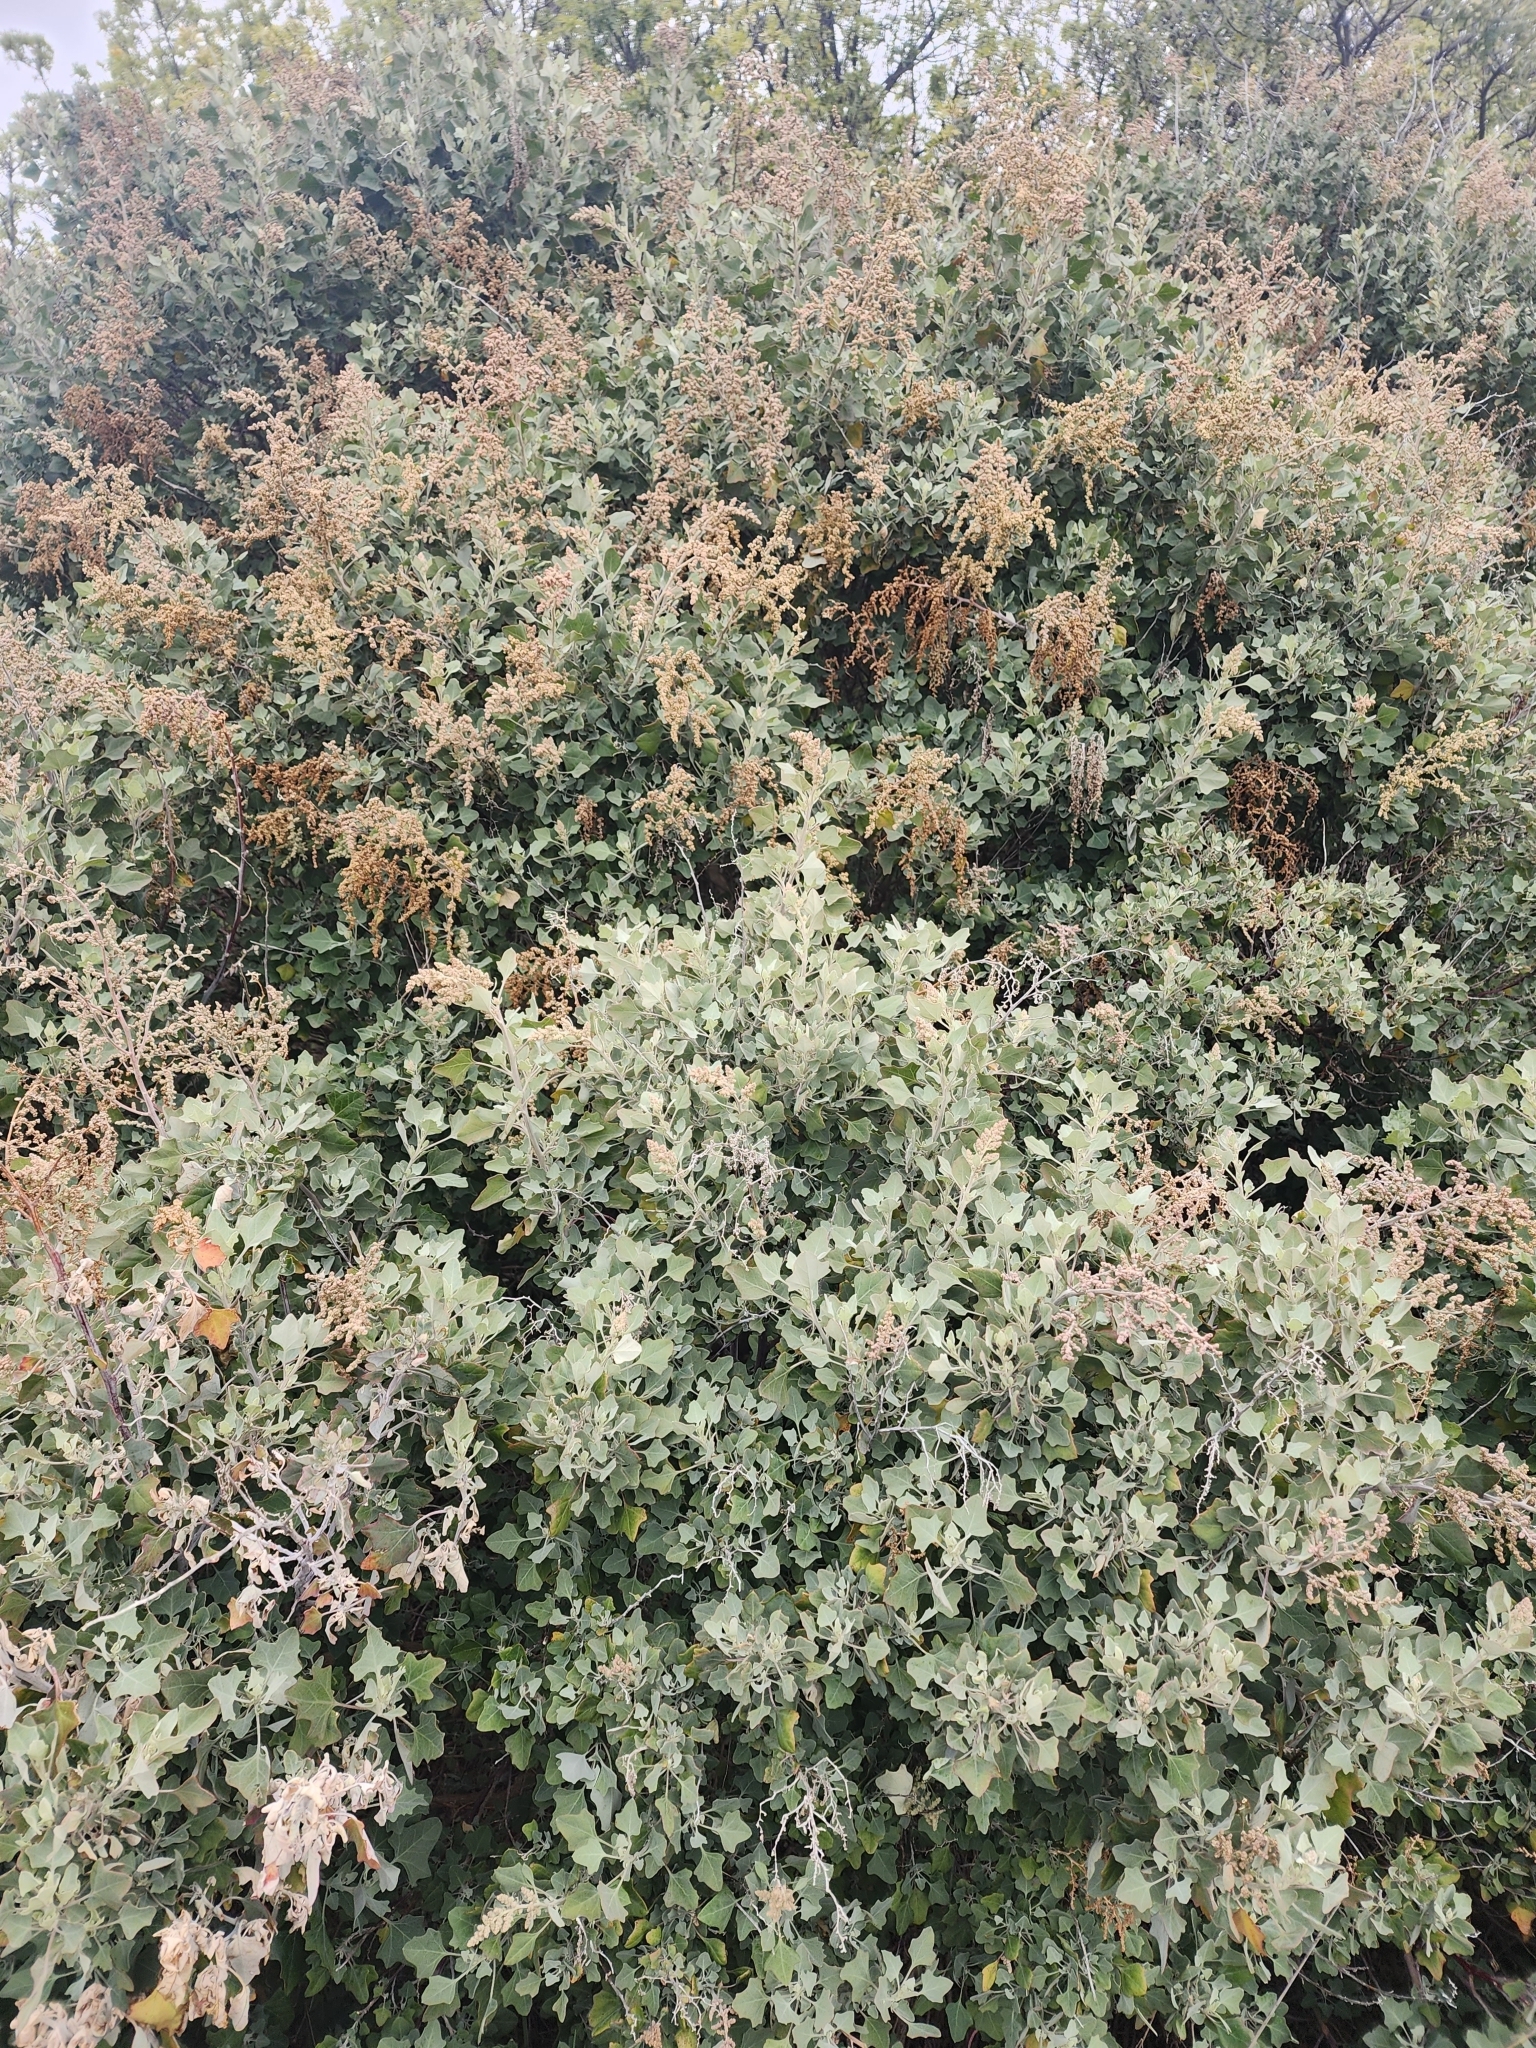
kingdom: Plantae
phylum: Tracheophyta
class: Magnoliopsida
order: Caryophyllales
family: Amaranthaceae
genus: Chenopodium
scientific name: Chenopodium oahuense
